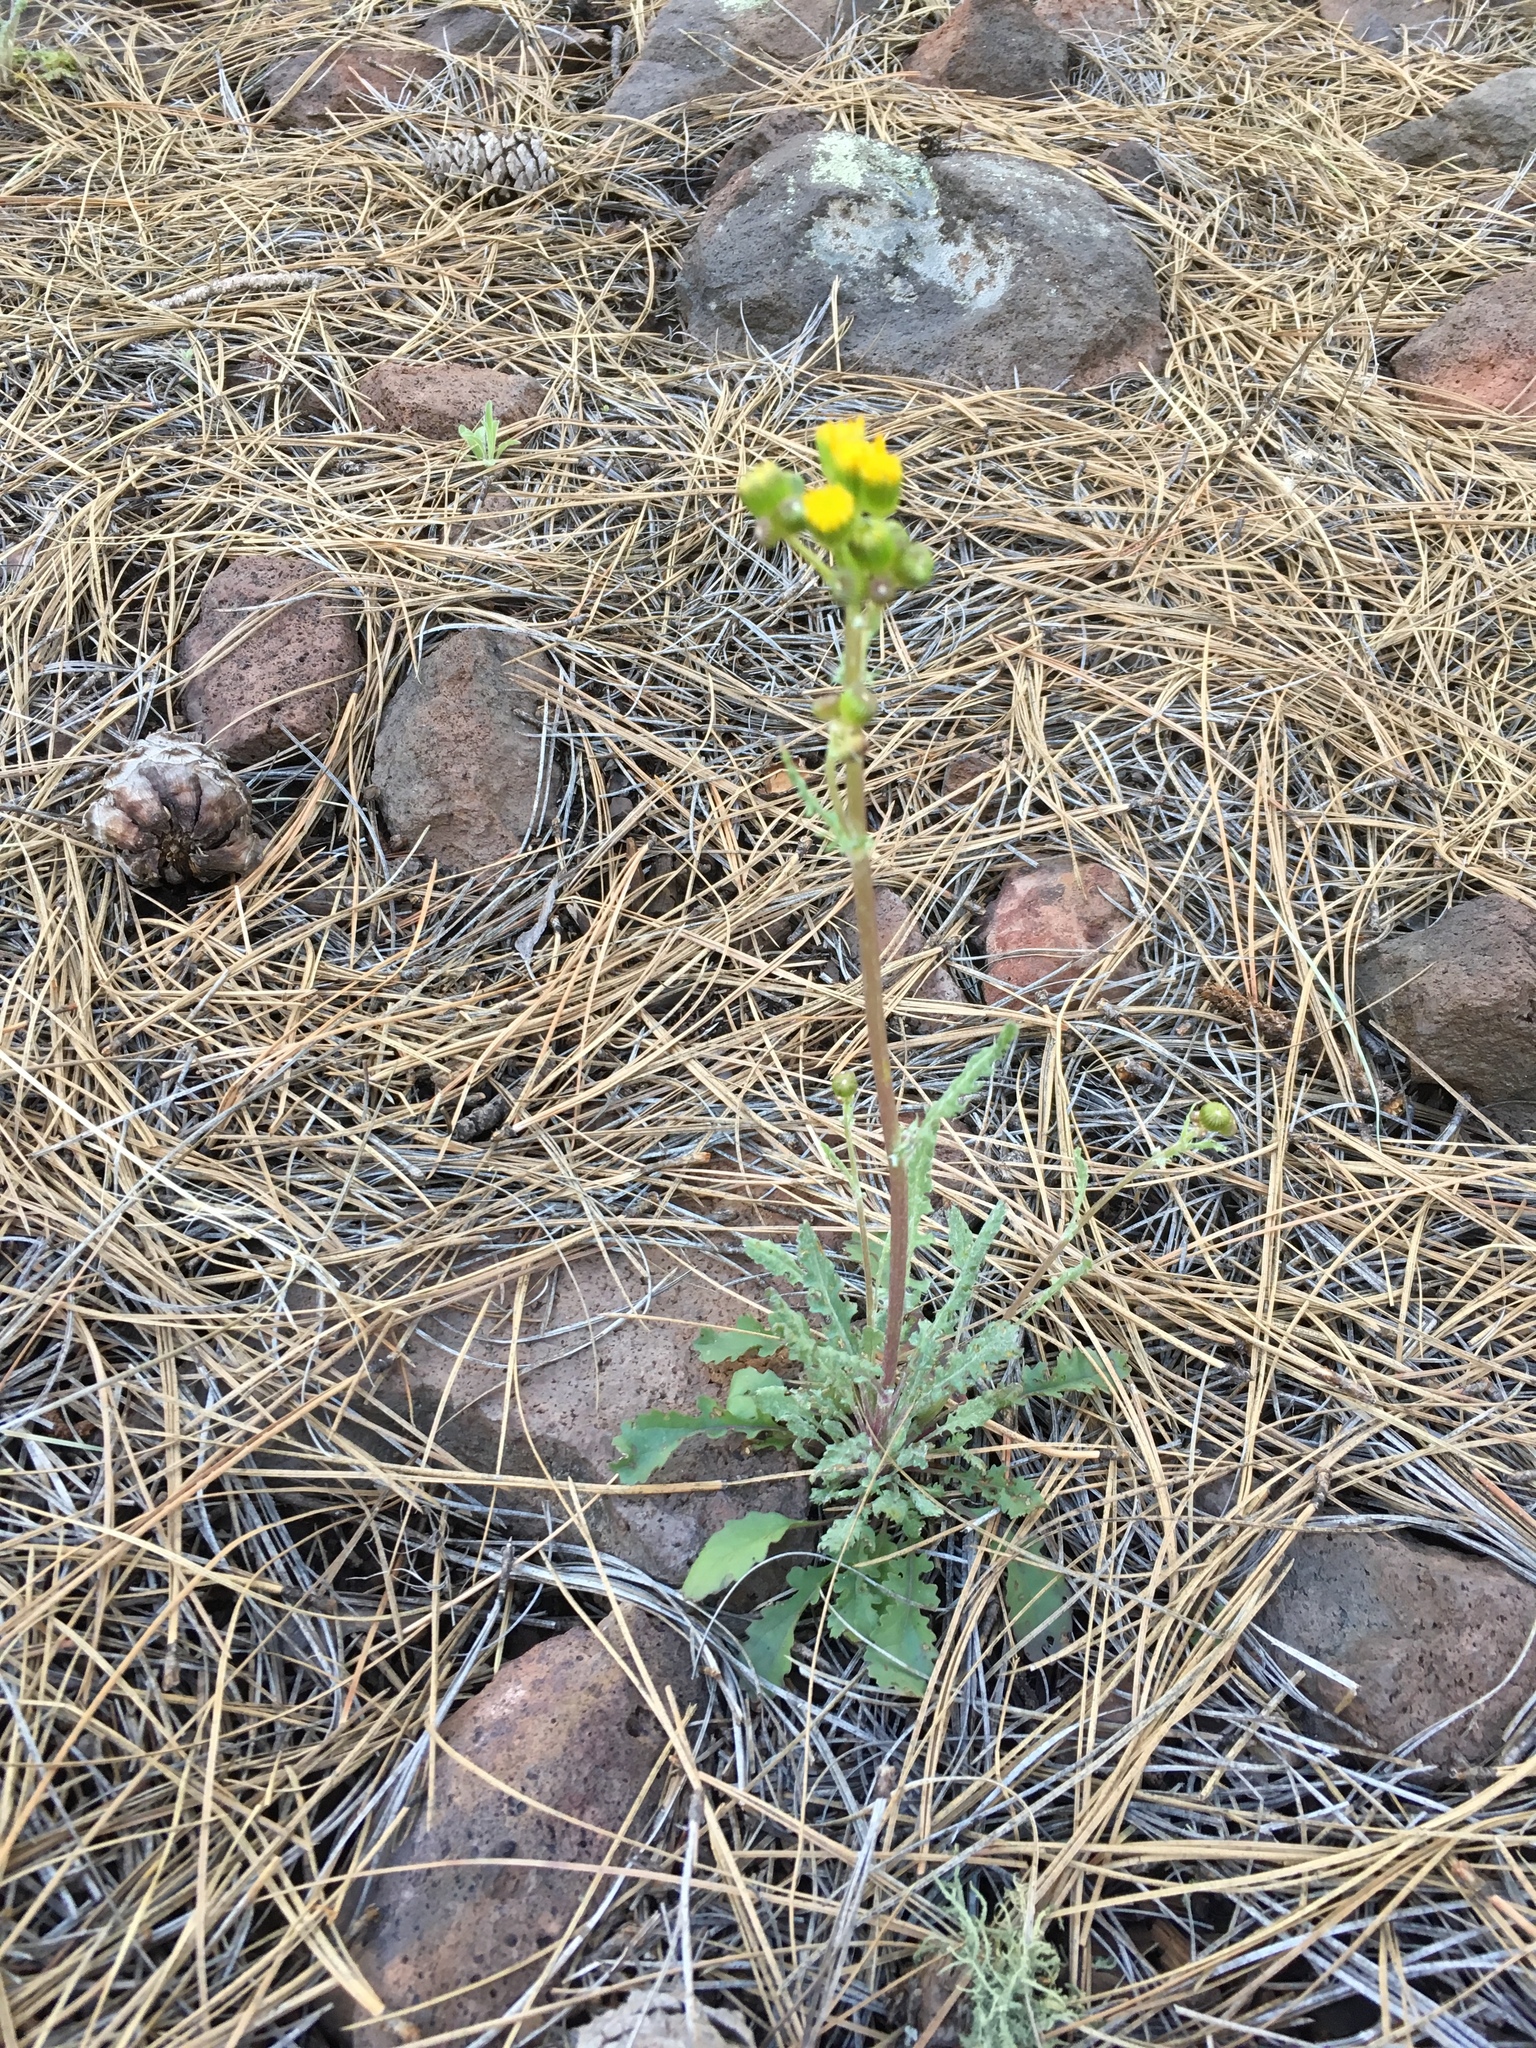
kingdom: Plantae
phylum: Tracheophyta
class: Magnoliopsida
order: Asterales
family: Asteraceae
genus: Packera
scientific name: Packera quercetorum
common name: Oak creek ragwort
